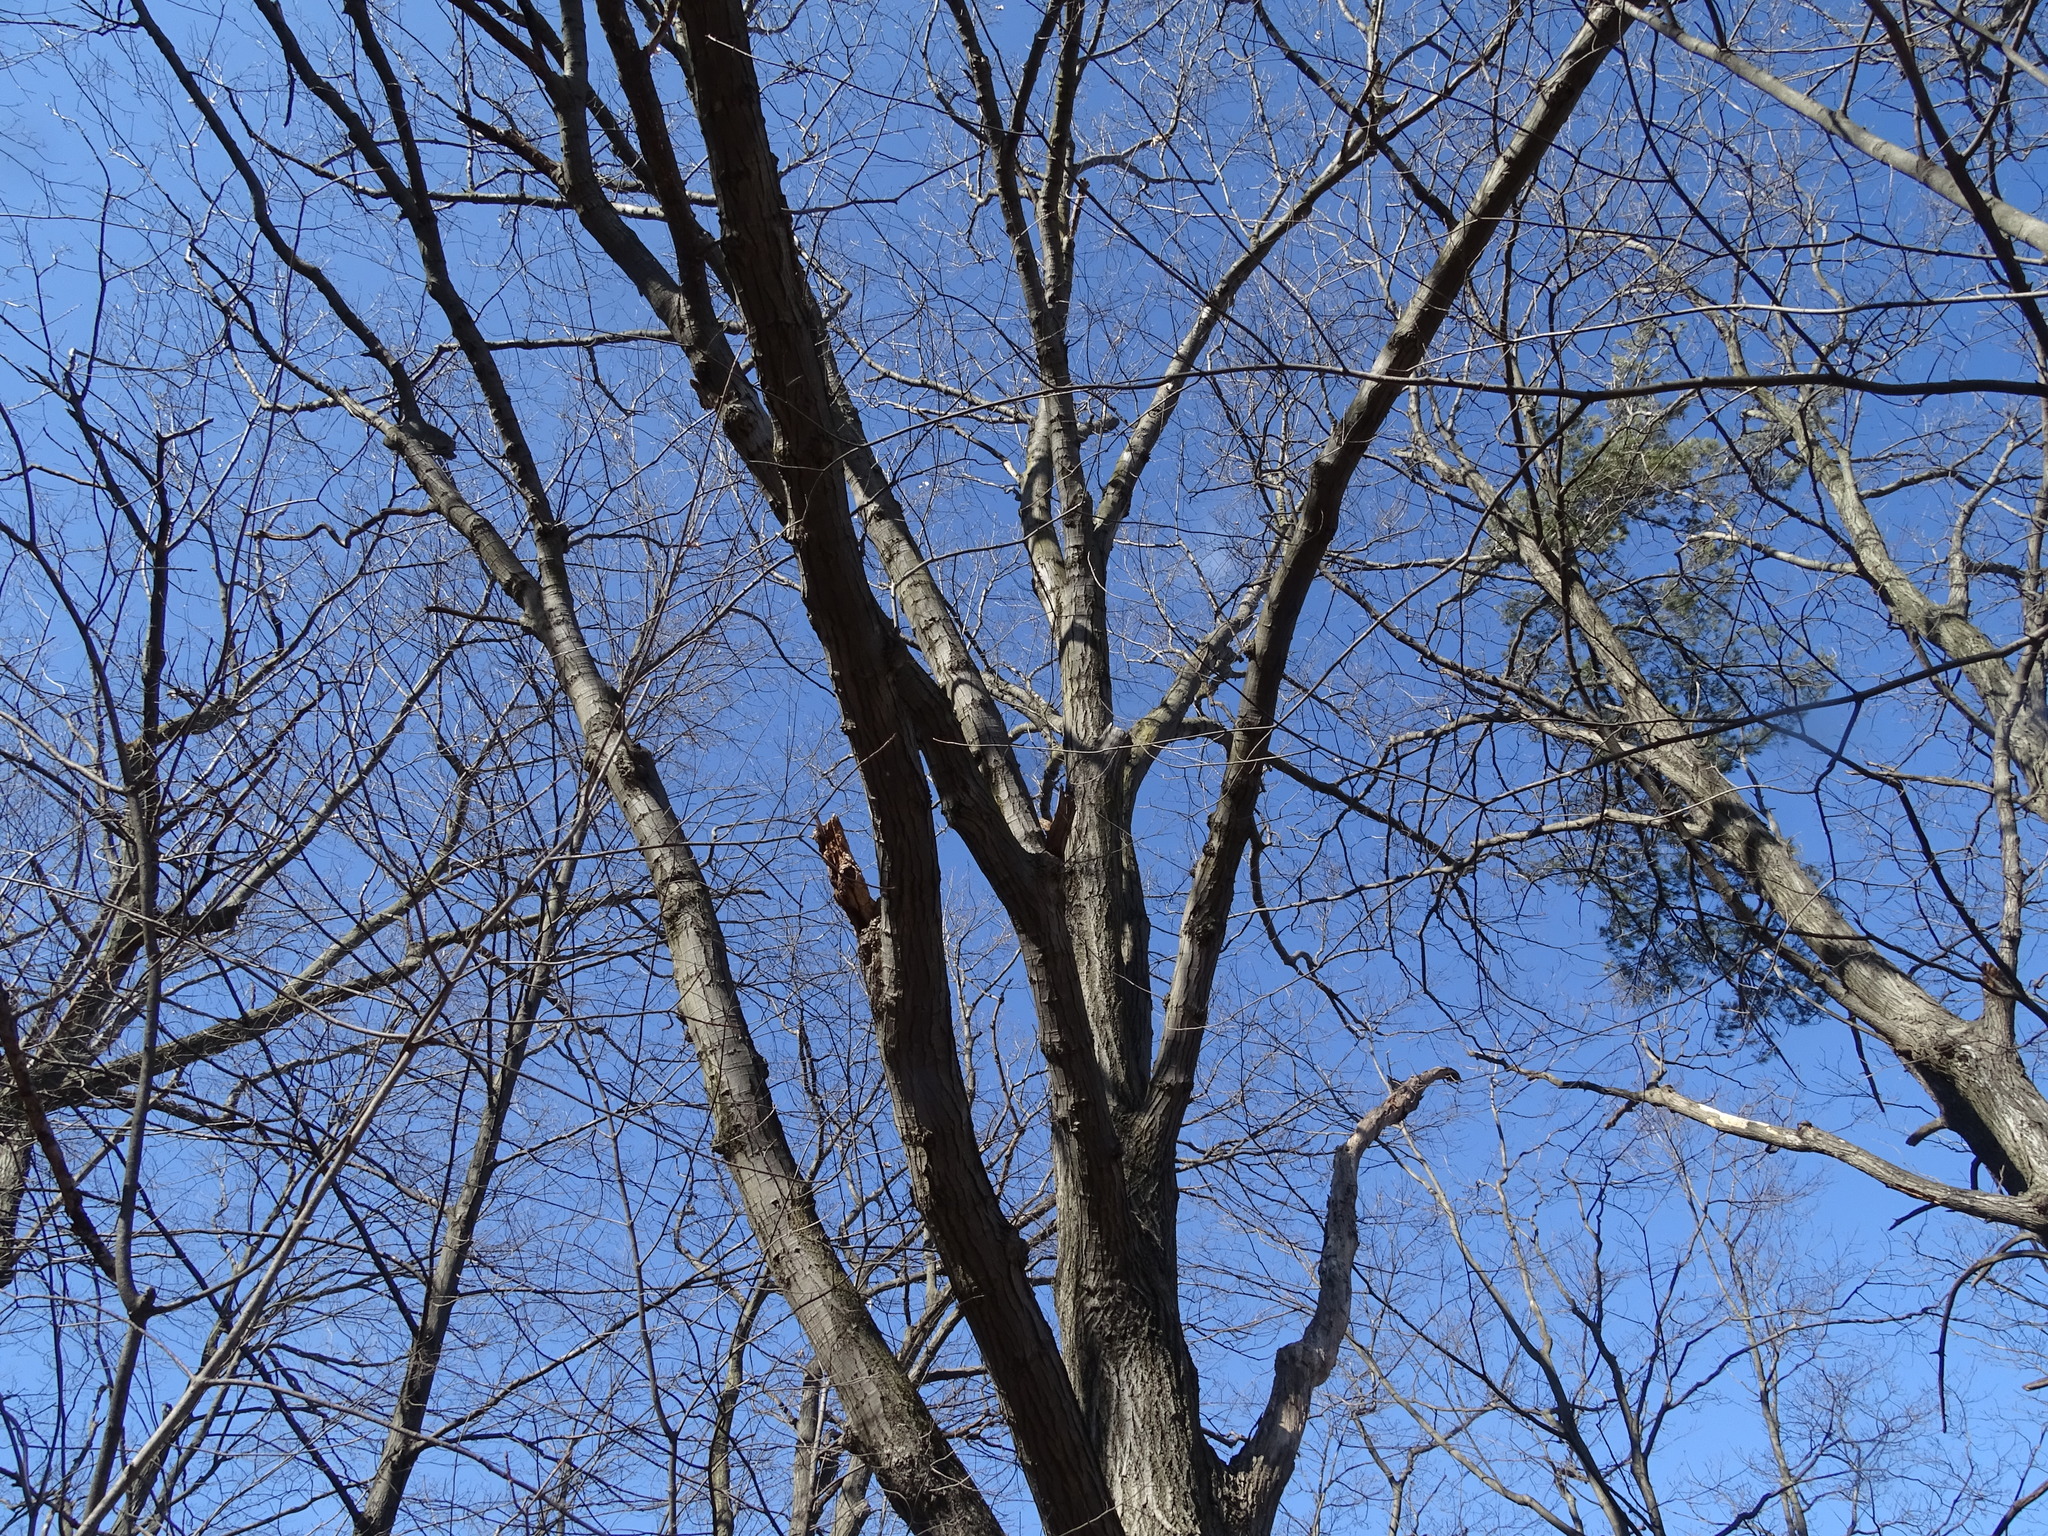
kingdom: Plantae
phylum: Tracheophyta
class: Magnoliopsida
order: Fagales
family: Fagaceae
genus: Quercus
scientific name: Quercus rubra
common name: Red oak
